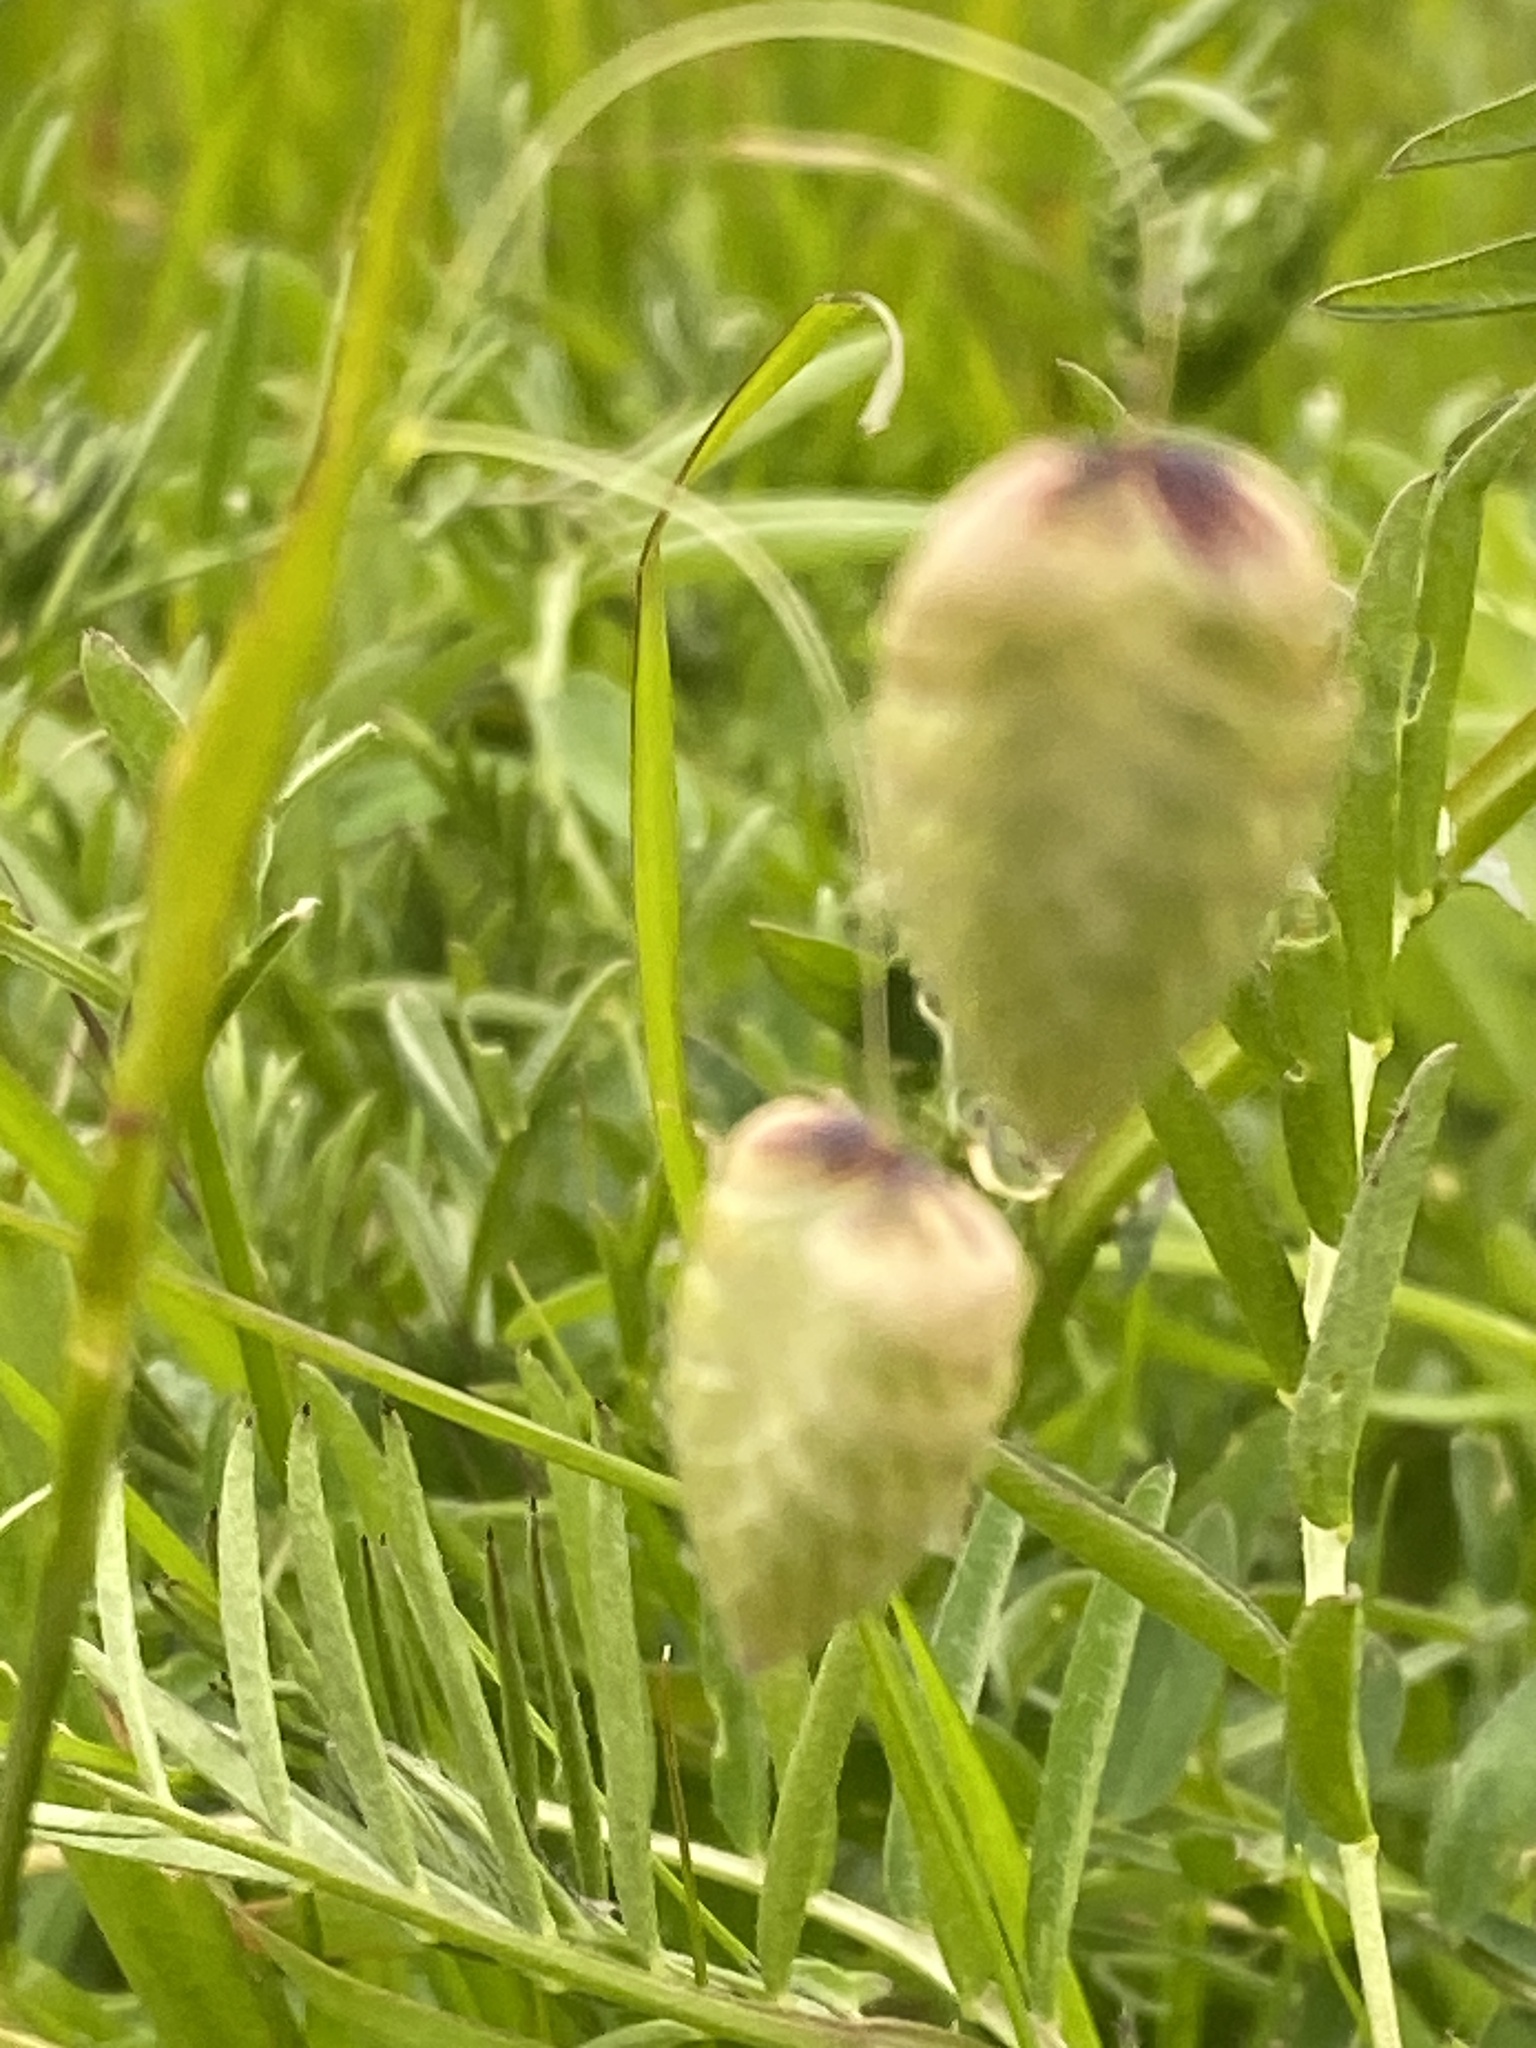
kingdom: Plantae
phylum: Tracheophyta
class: Liliopsida
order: Poales
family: Poaceae
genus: Briza
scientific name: Briza maxima
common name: Big quakinggrass
